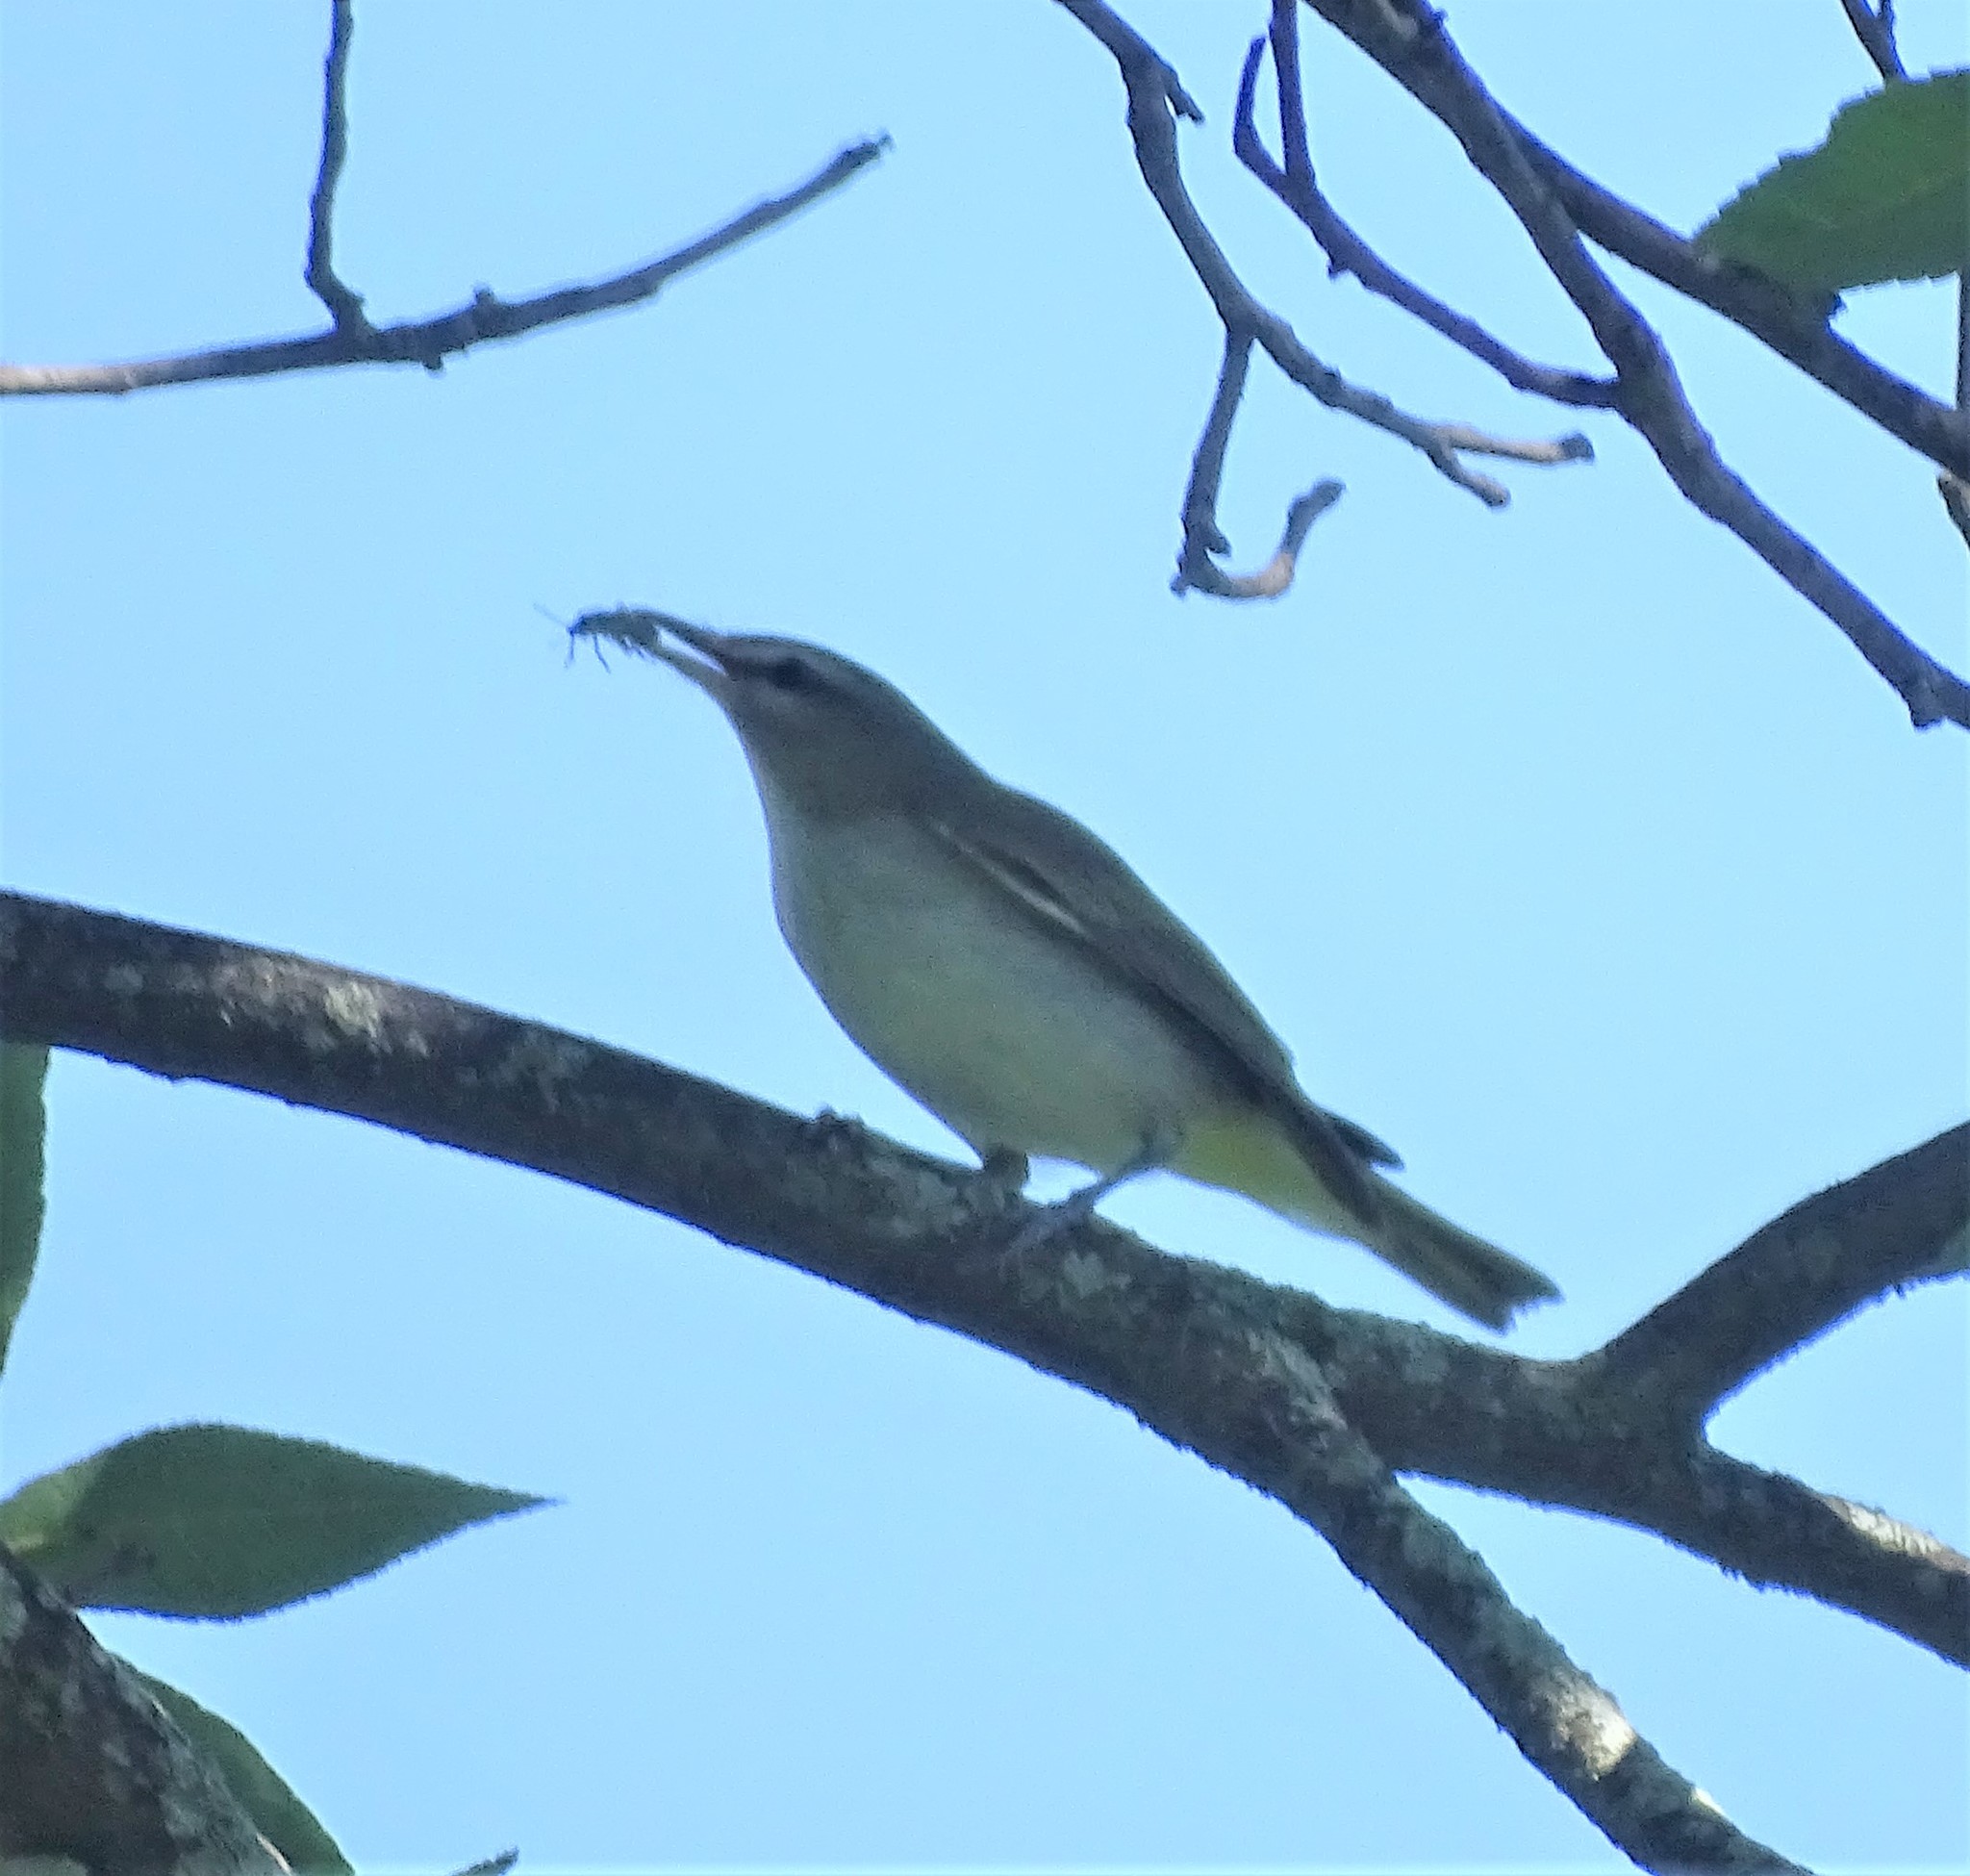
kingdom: Animalia
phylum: Chordata
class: Aves
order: Passeriformes
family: Vireonidae
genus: Vireo
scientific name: Vireo olivaceus
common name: Red-eyed vireo
